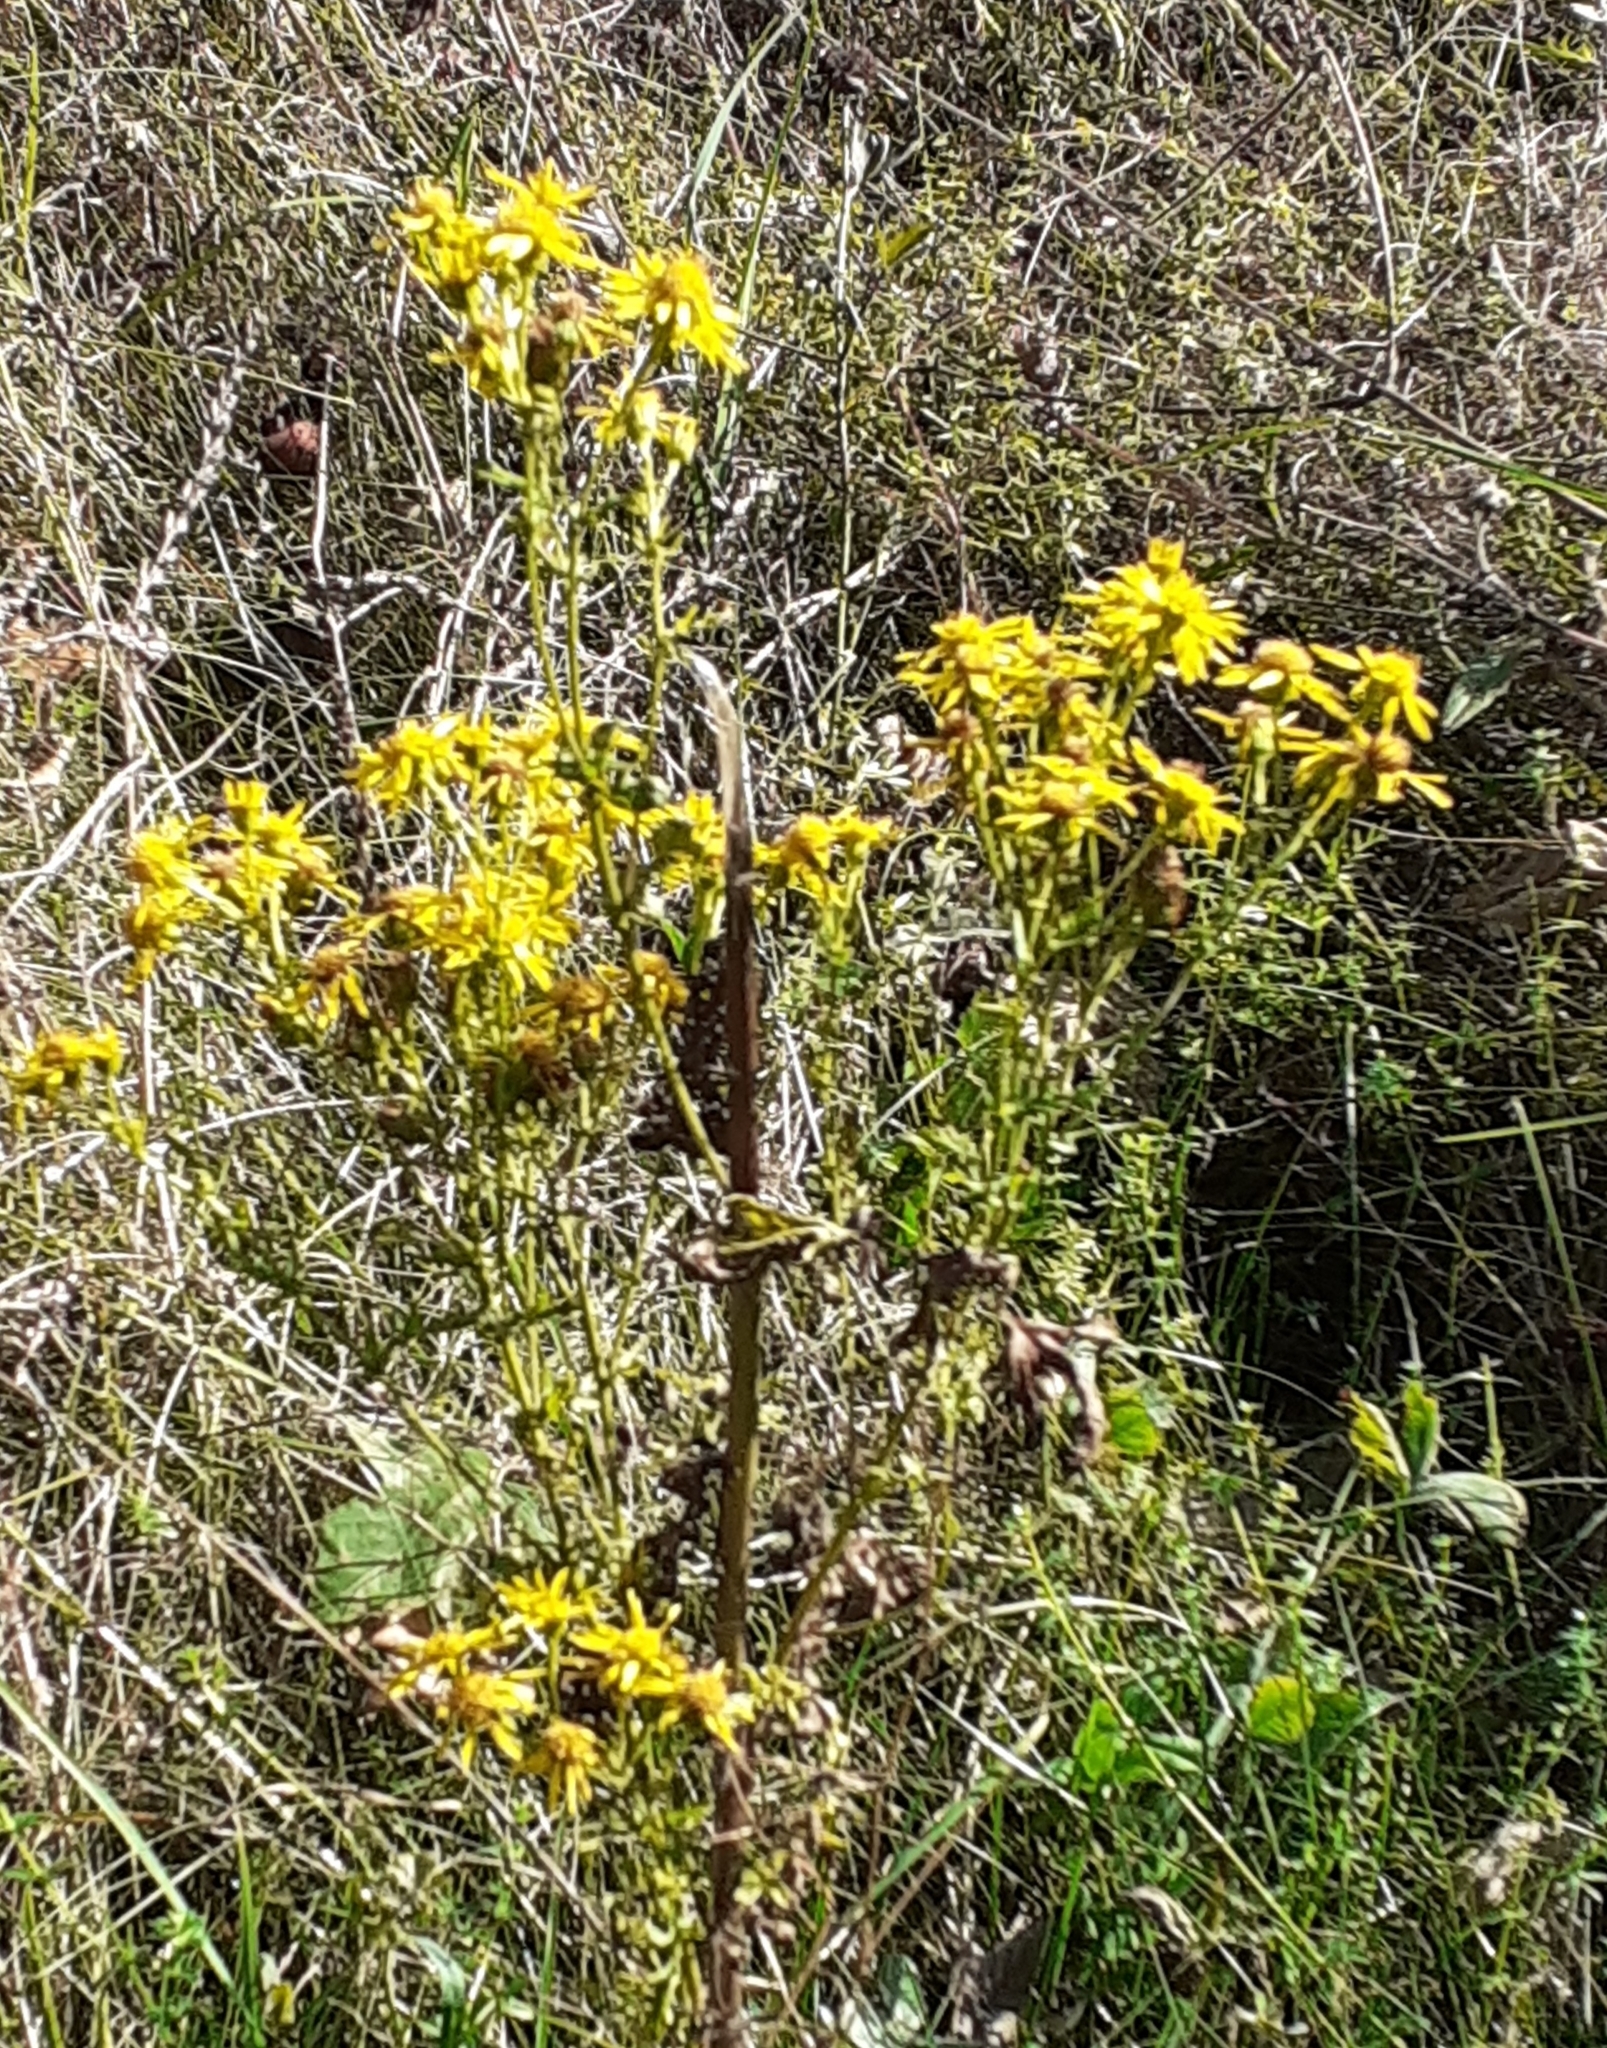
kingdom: Plantae
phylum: Tracheophyta
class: Magnoliopsida
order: Asterales
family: Asteraceae
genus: Jacobaea
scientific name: Jacobaea vulgaris
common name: Stinking willie
